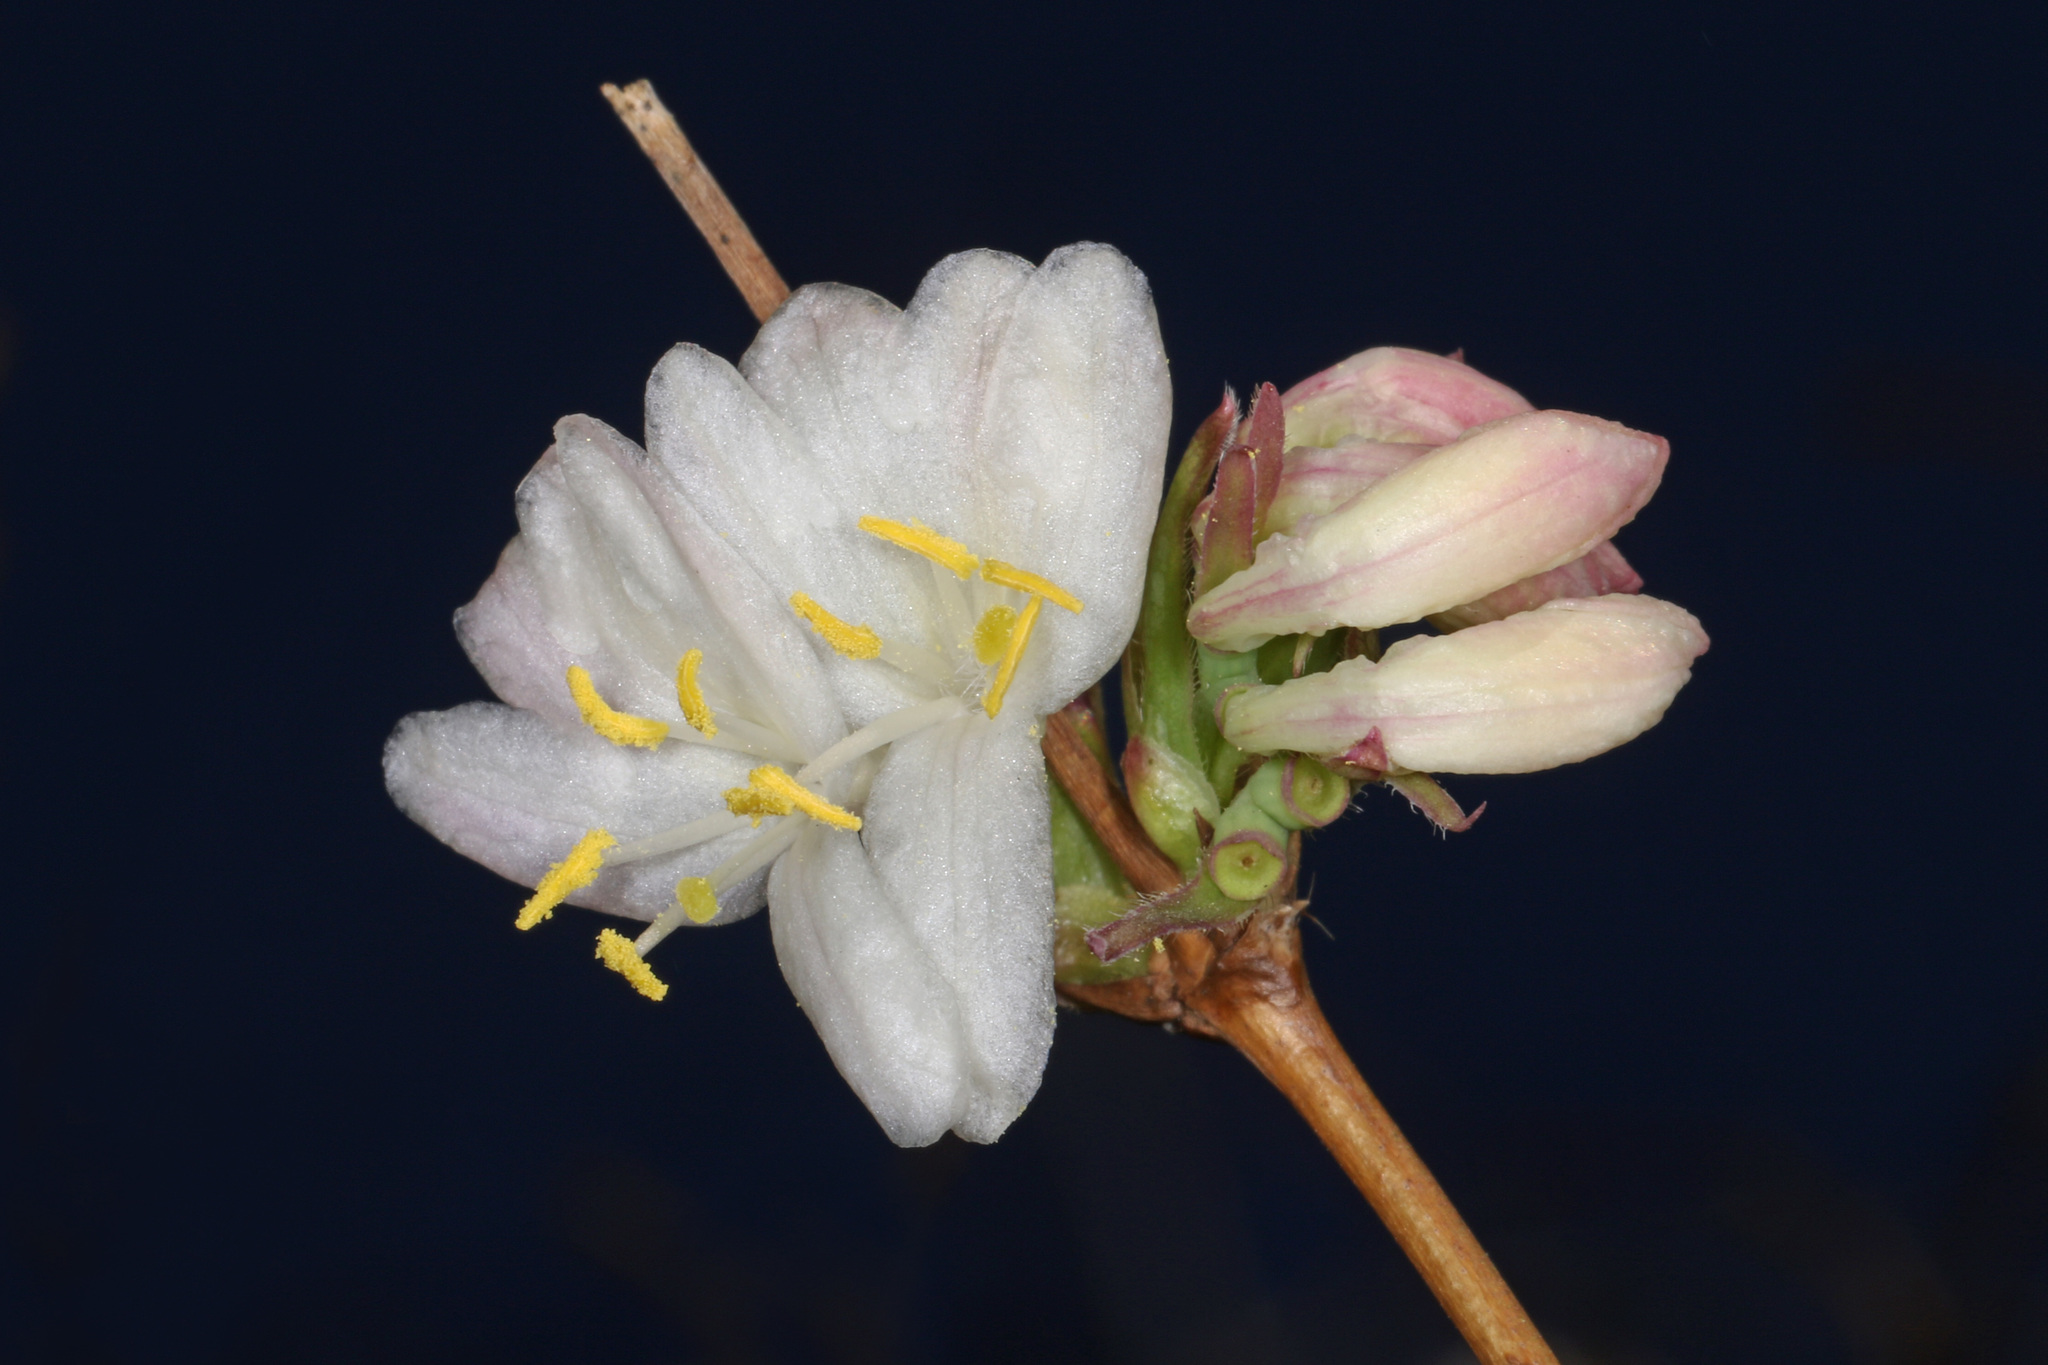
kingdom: Plantae
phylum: Tracheophyta
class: Magnoliopsida
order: Dipsacales
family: Caprifoliaceae
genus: Lonicera
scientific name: Lonicera fragrantissima
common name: Fragrant honeysuckle
